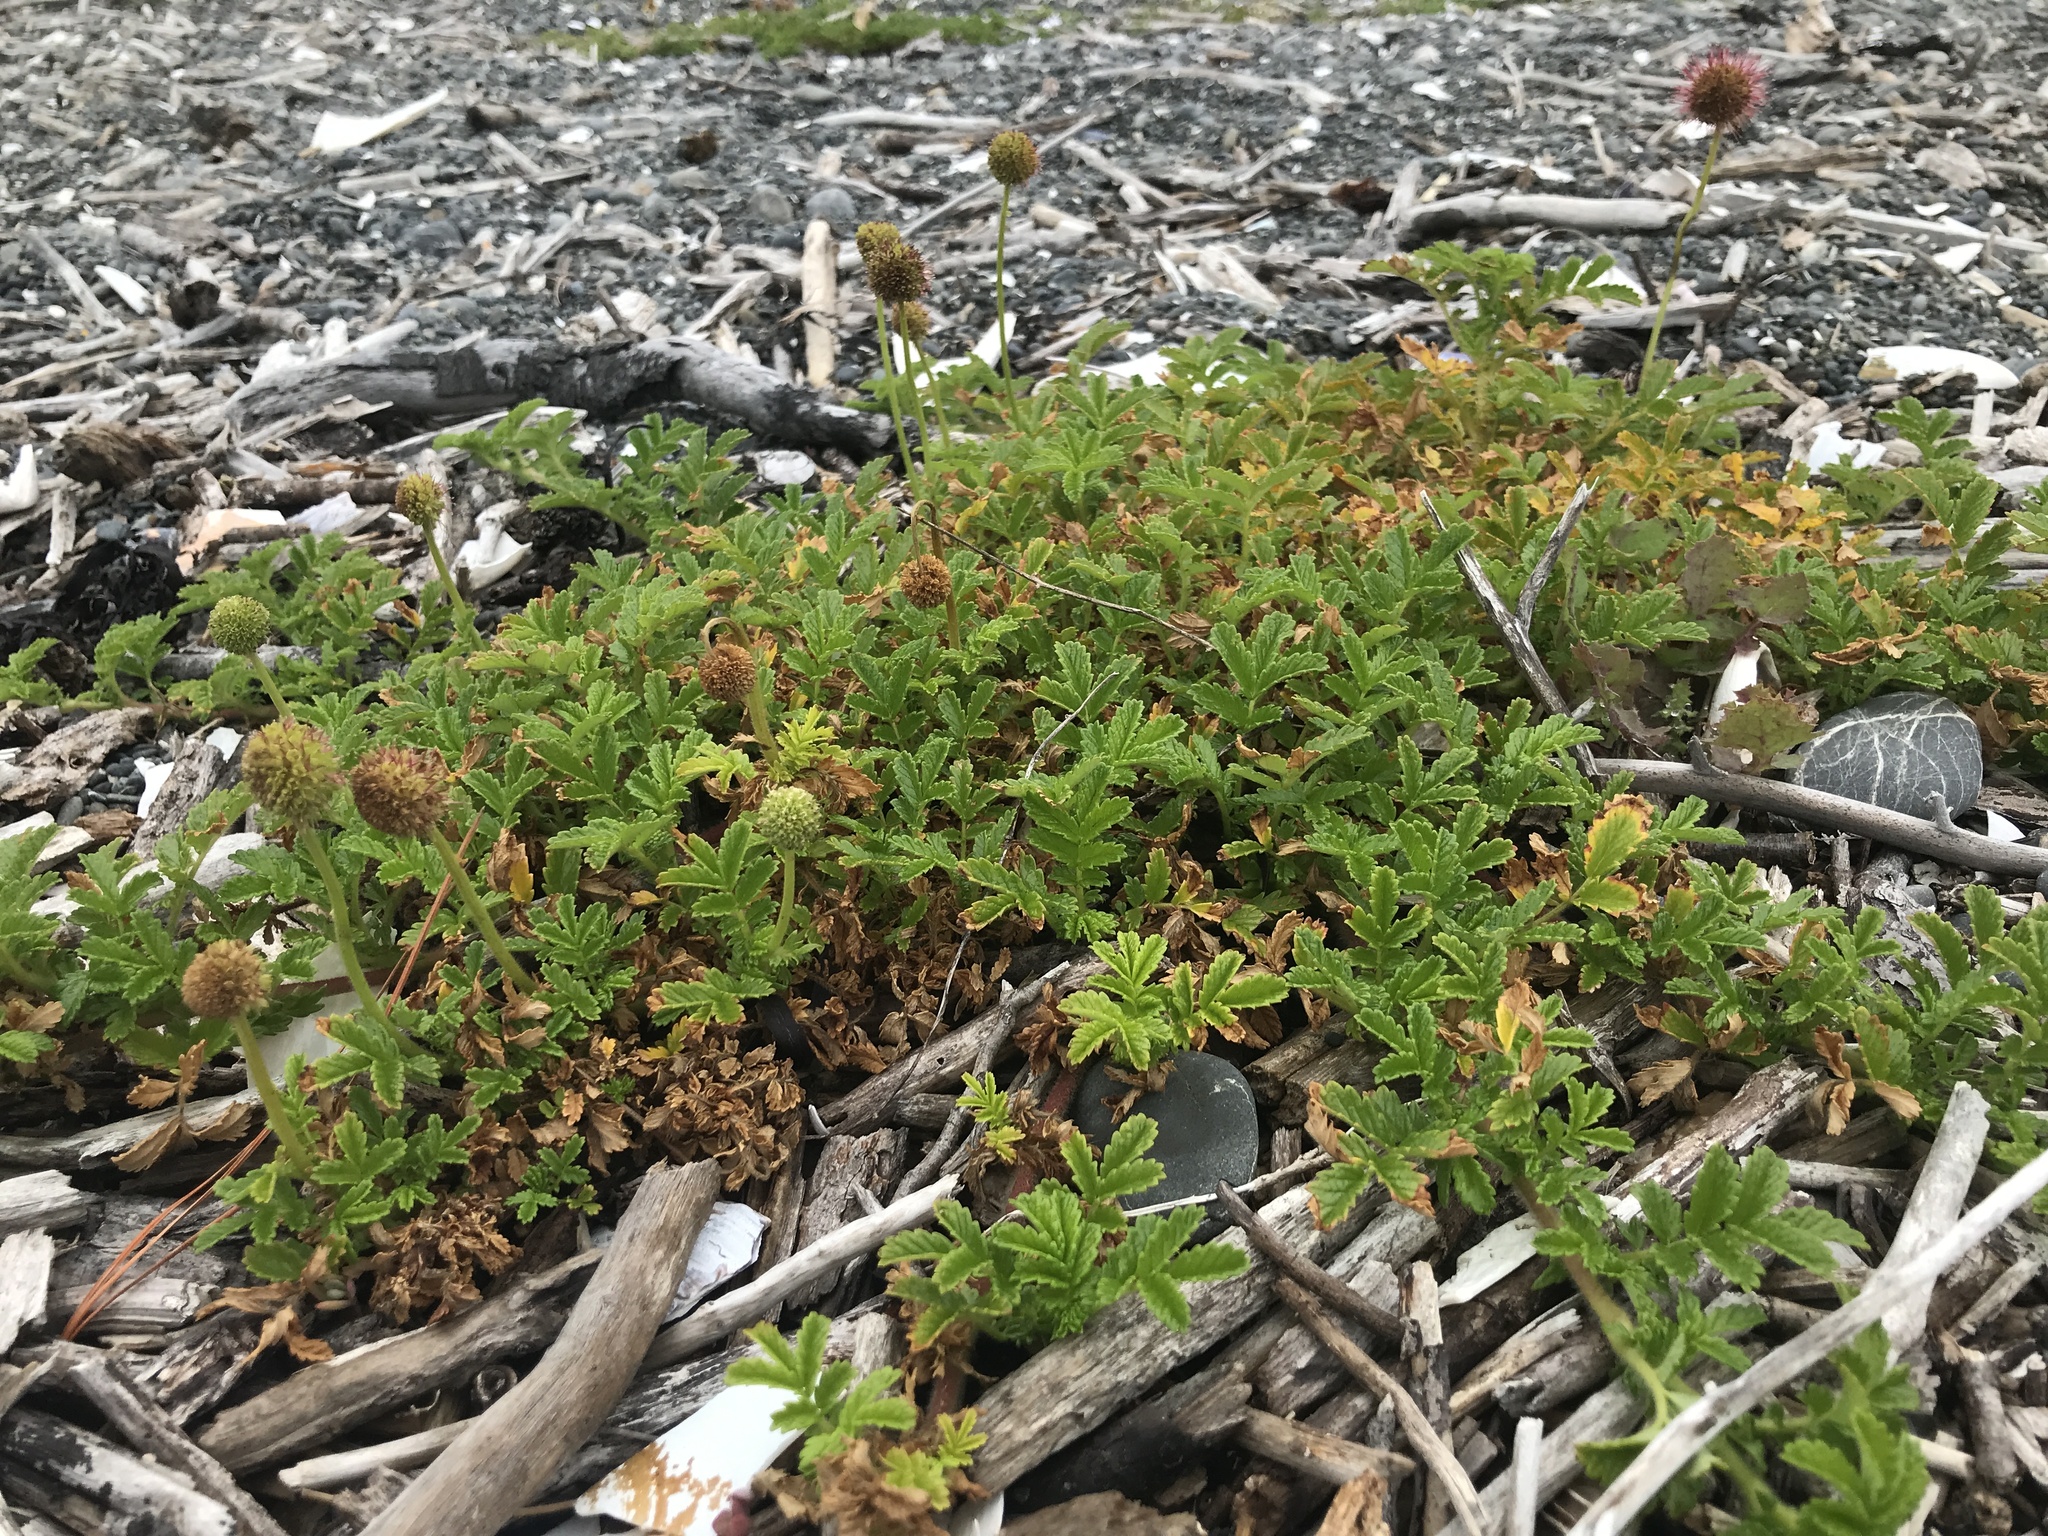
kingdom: Plantae
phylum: Tracheophyta
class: Magnoliopsida
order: Rosales
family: Rosaceae
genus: Acaena
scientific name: Acaena novae-zelandiae
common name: Pirri-pirri-bur
